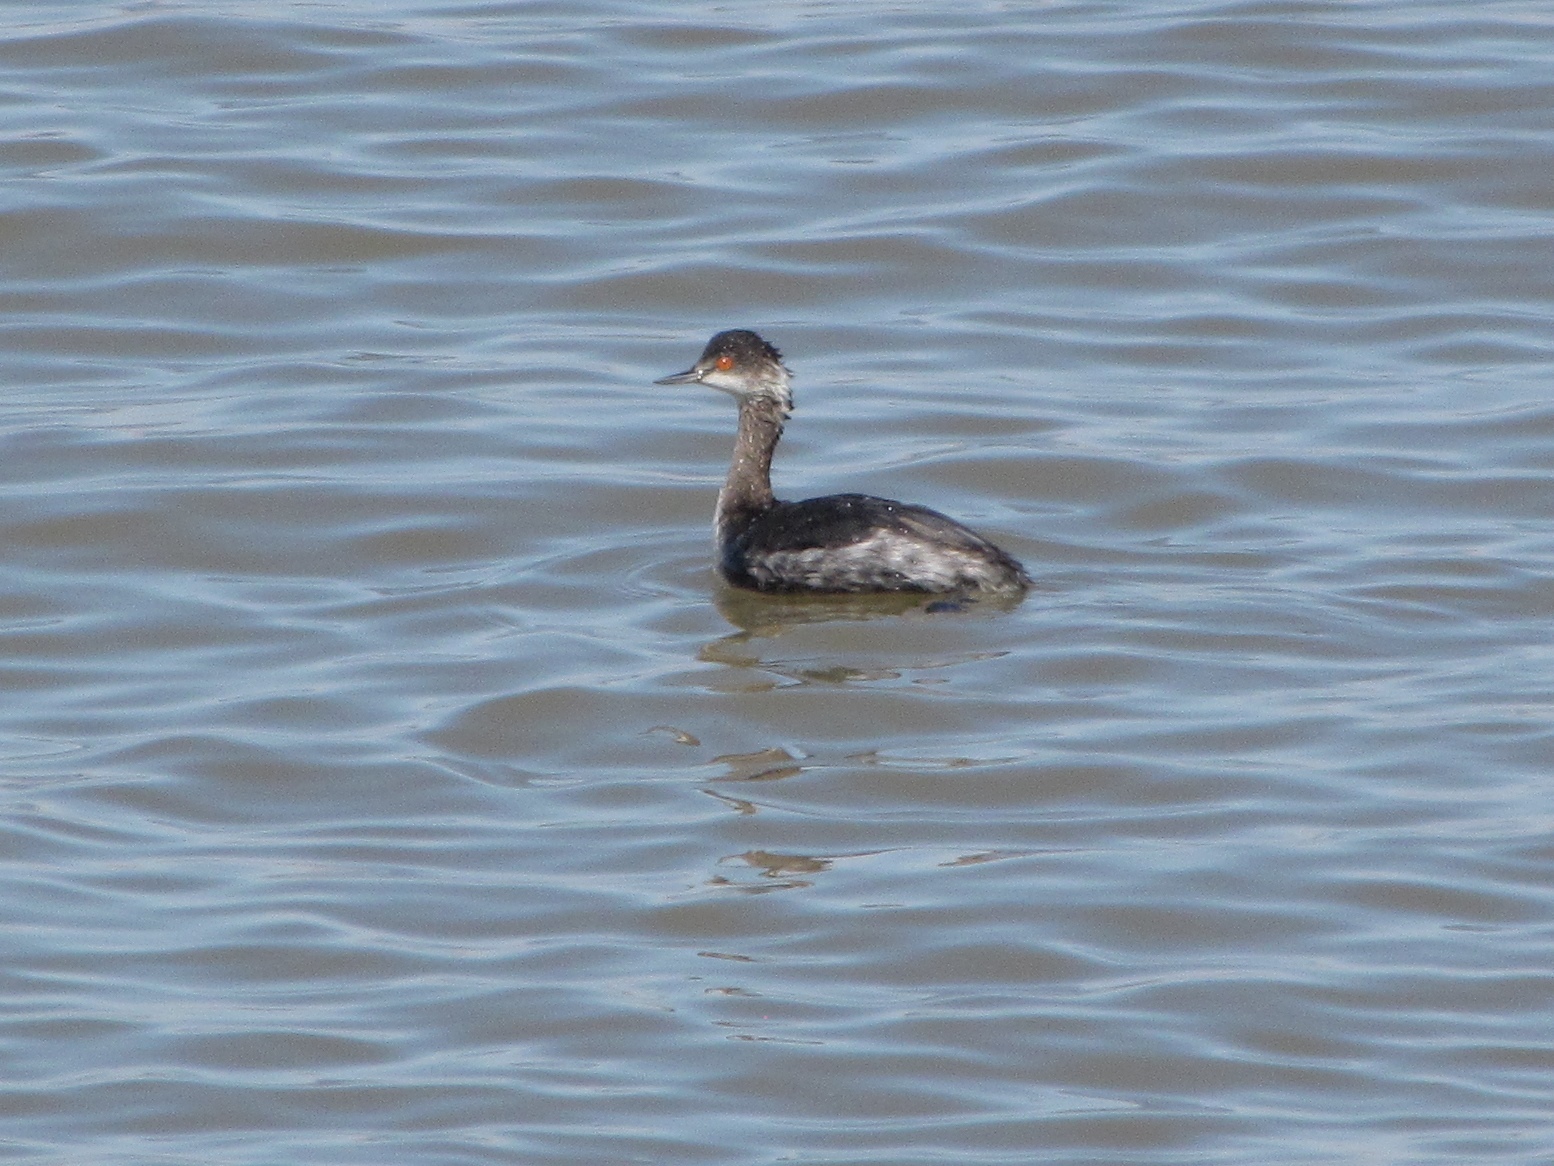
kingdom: Animalia
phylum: Chordata
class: Aves
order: Podicipediformes
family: Podicipedidae
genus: Podiceps
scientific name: Podiceps nigricollis
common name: Black-necked grebe
